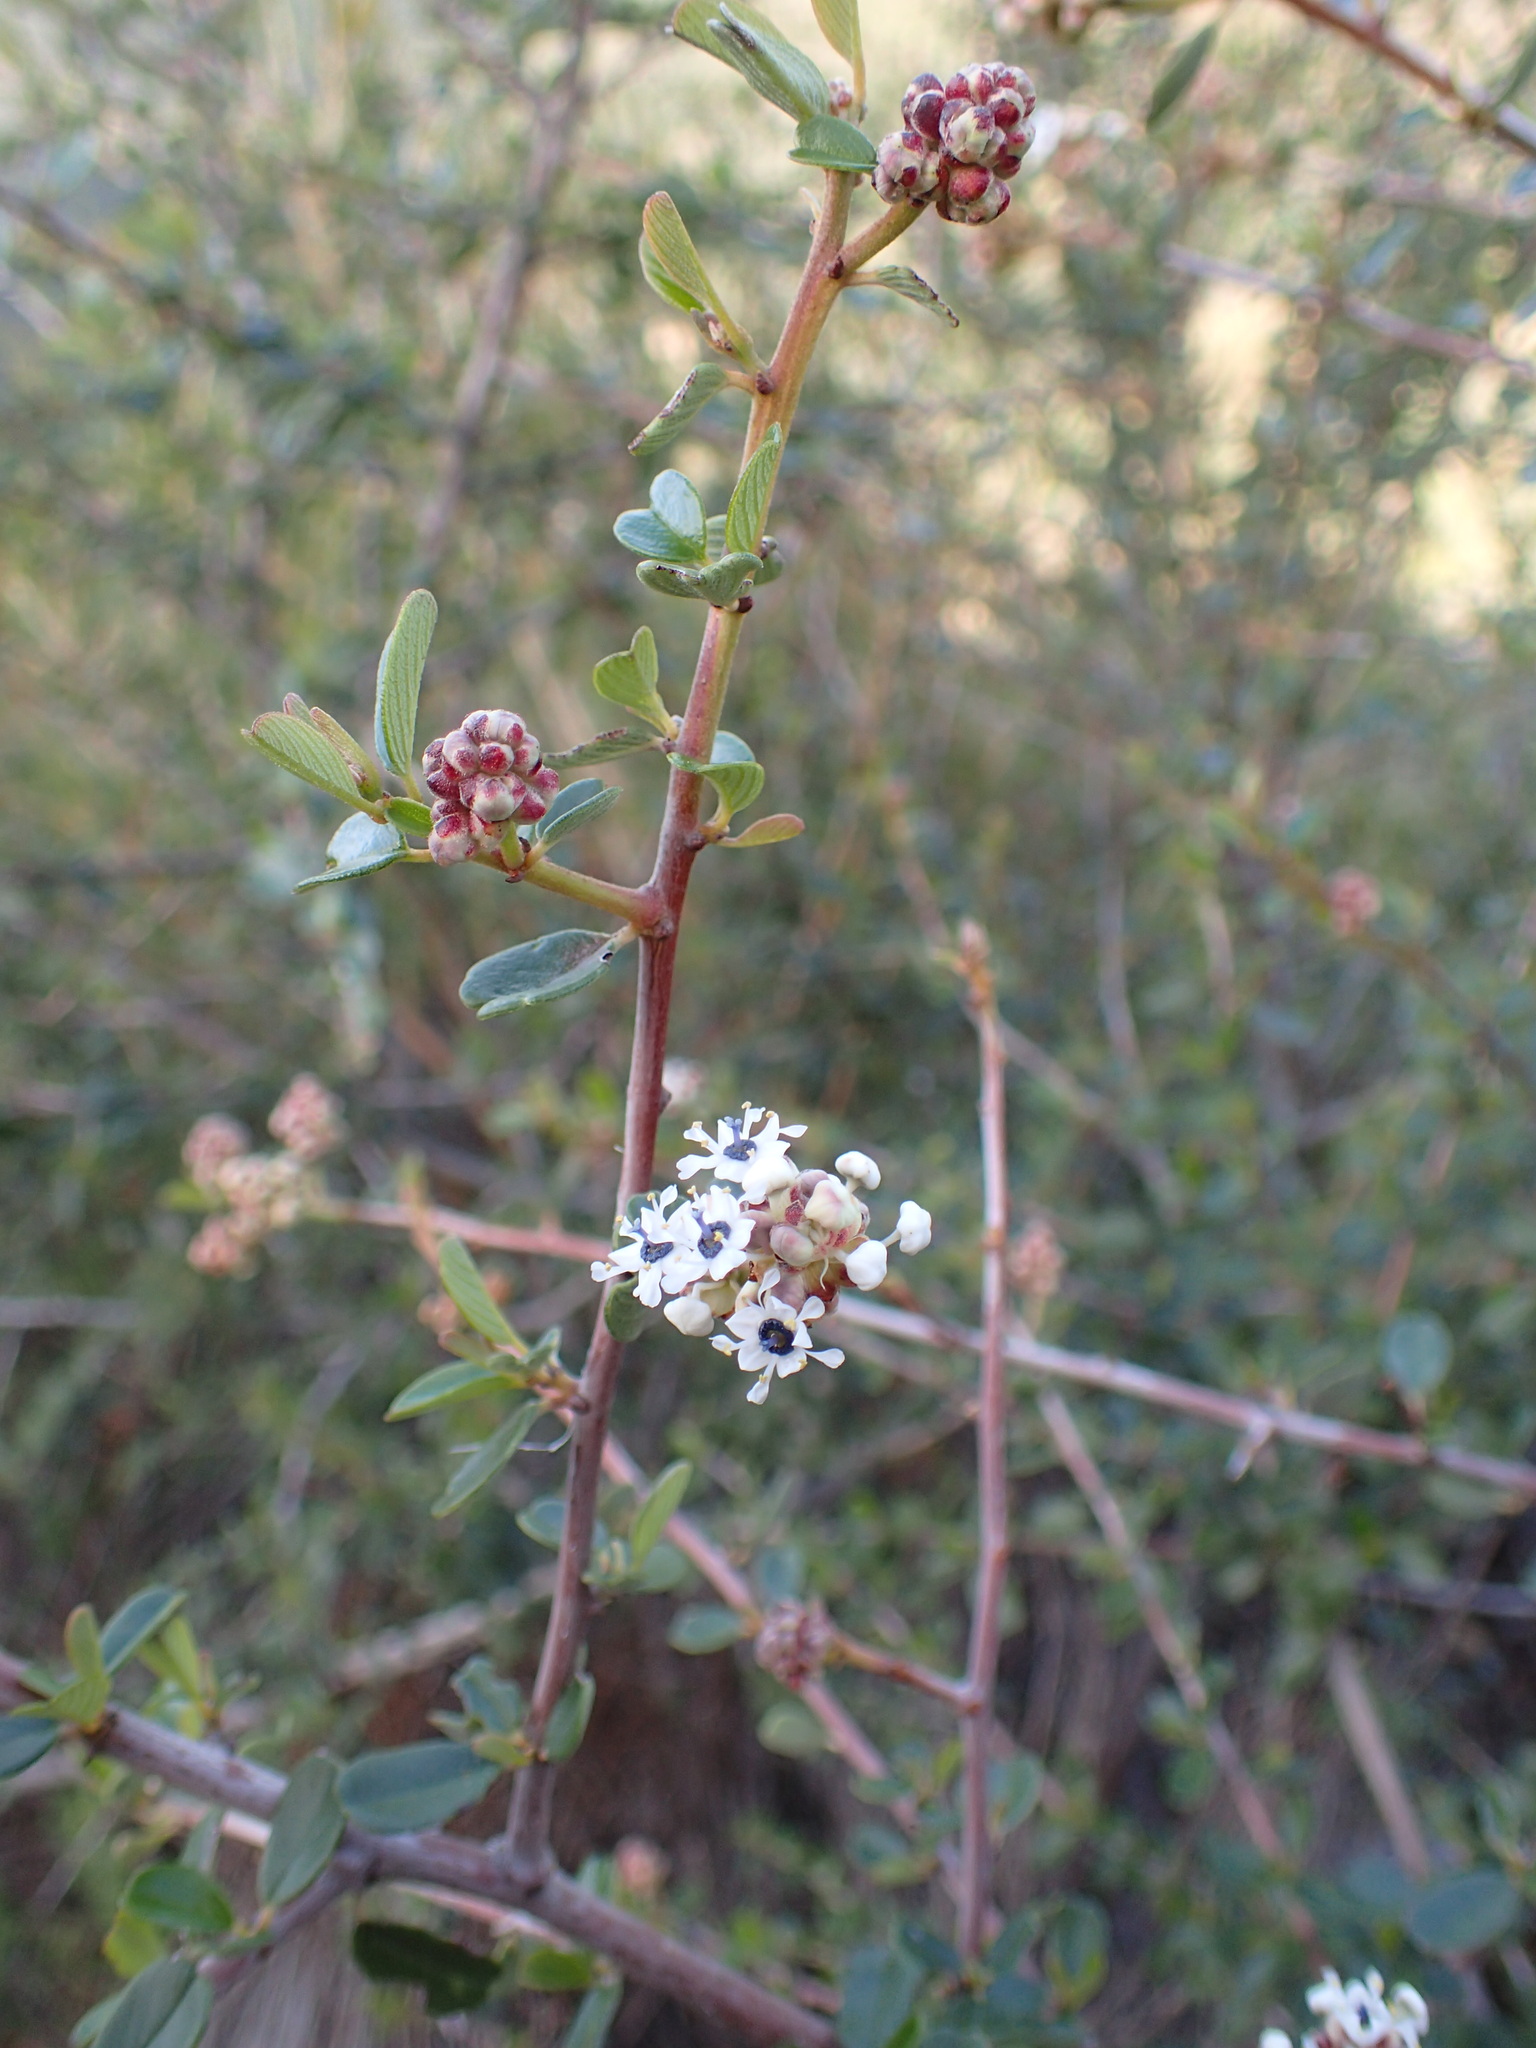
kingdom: Plantae
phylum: Tracheophyta
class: Magnoliopsida
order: Rosales
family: Rhamnaceae
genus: Ceanothus
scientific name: Ceanothus megacarpus
